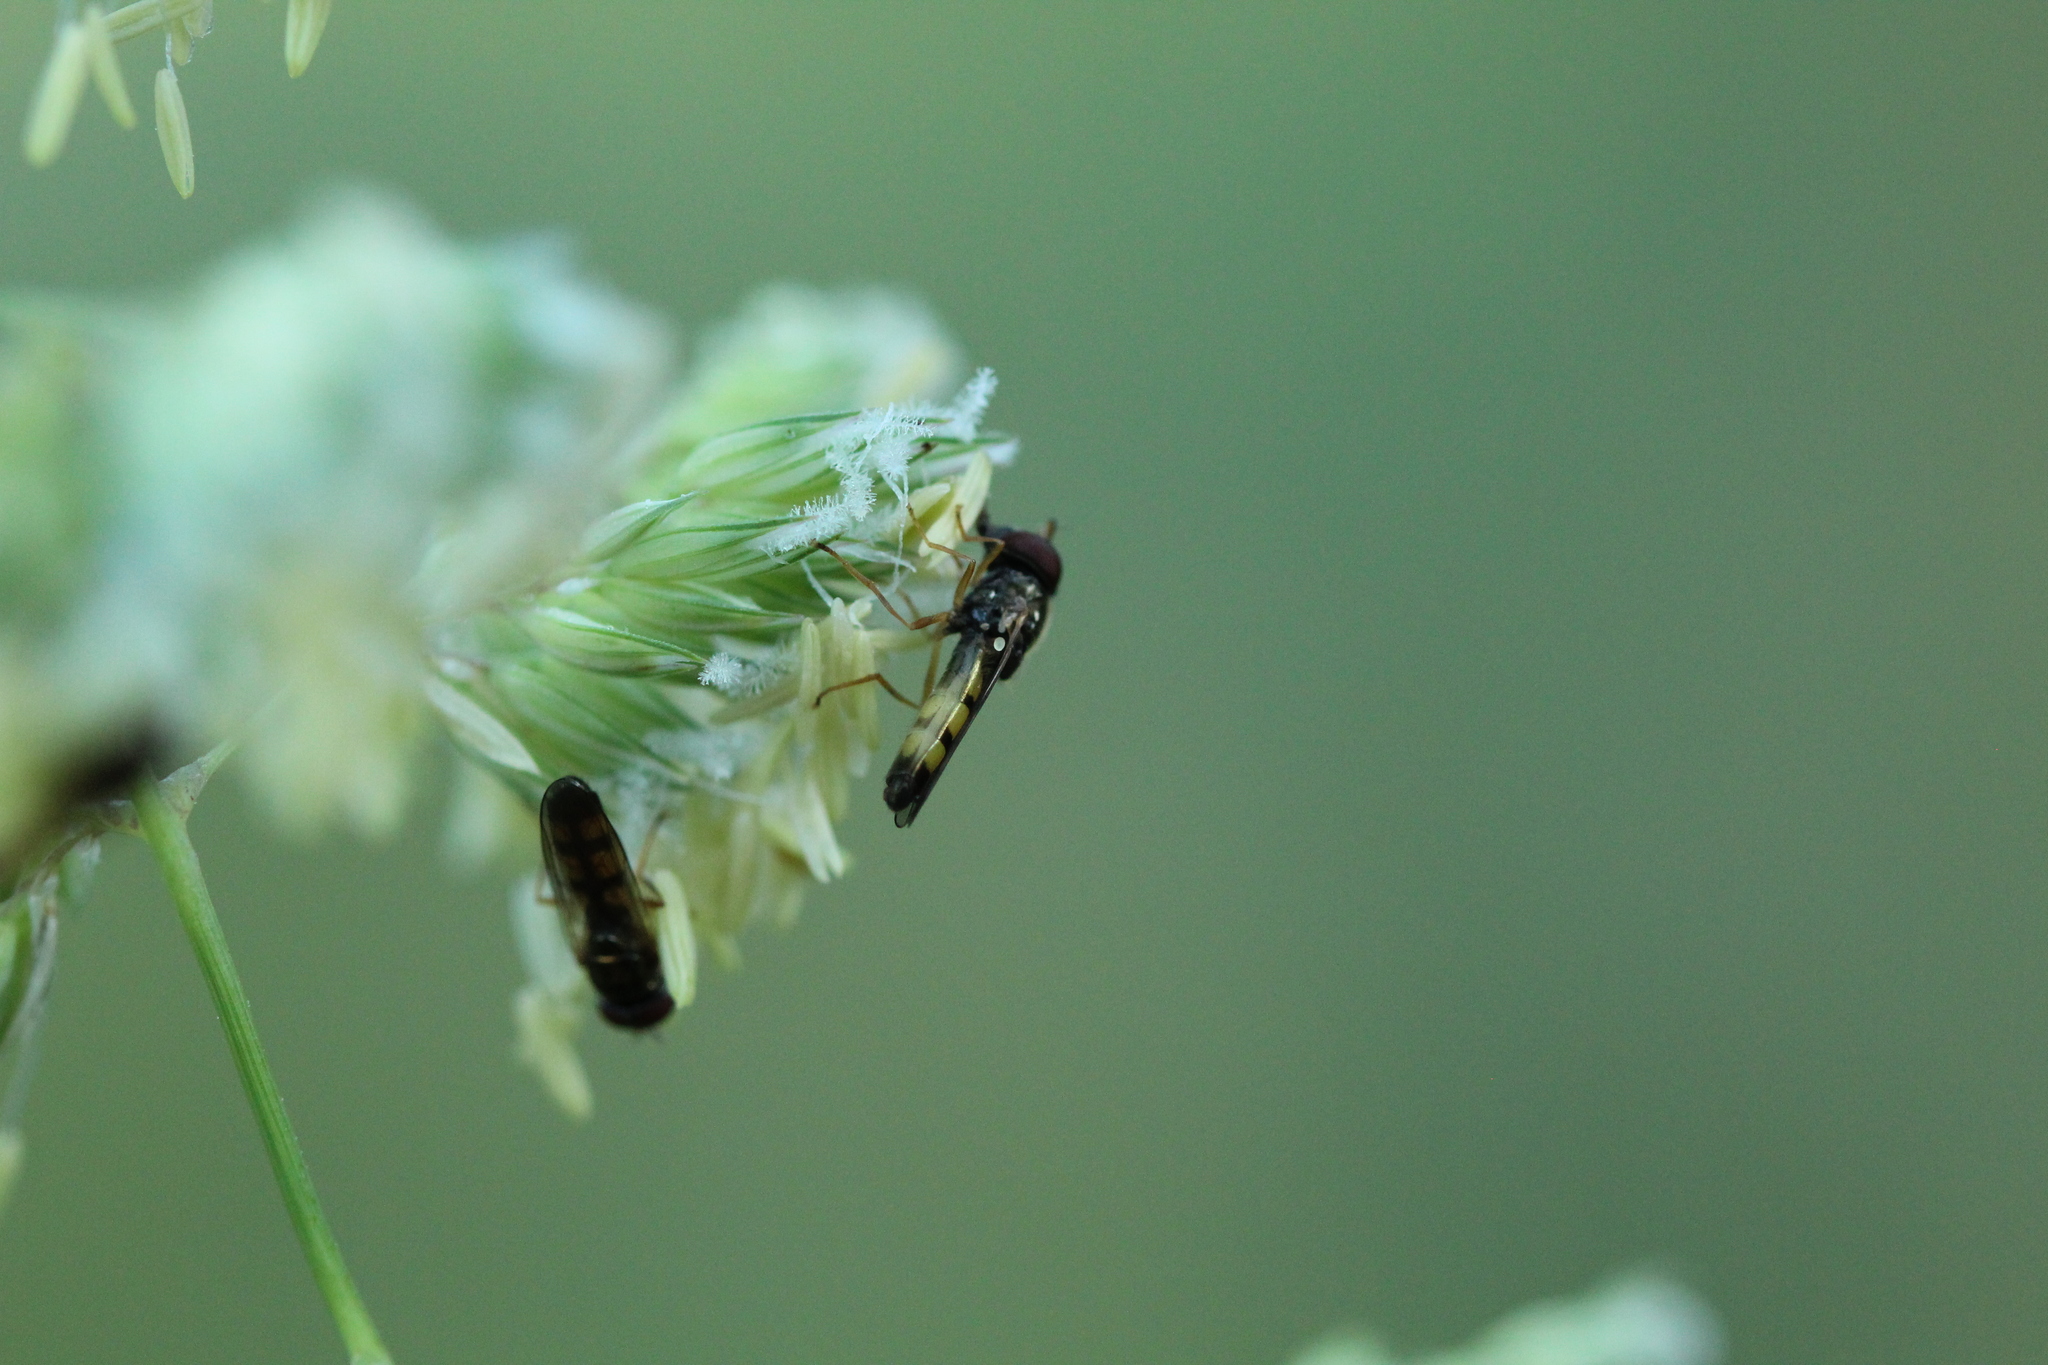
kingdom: Animalia
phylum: Arthropoda
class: Insecta
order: Diptera
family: Syrphidae
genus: Melanostoma
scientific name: Melanostoma mellina
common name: Hover fly
